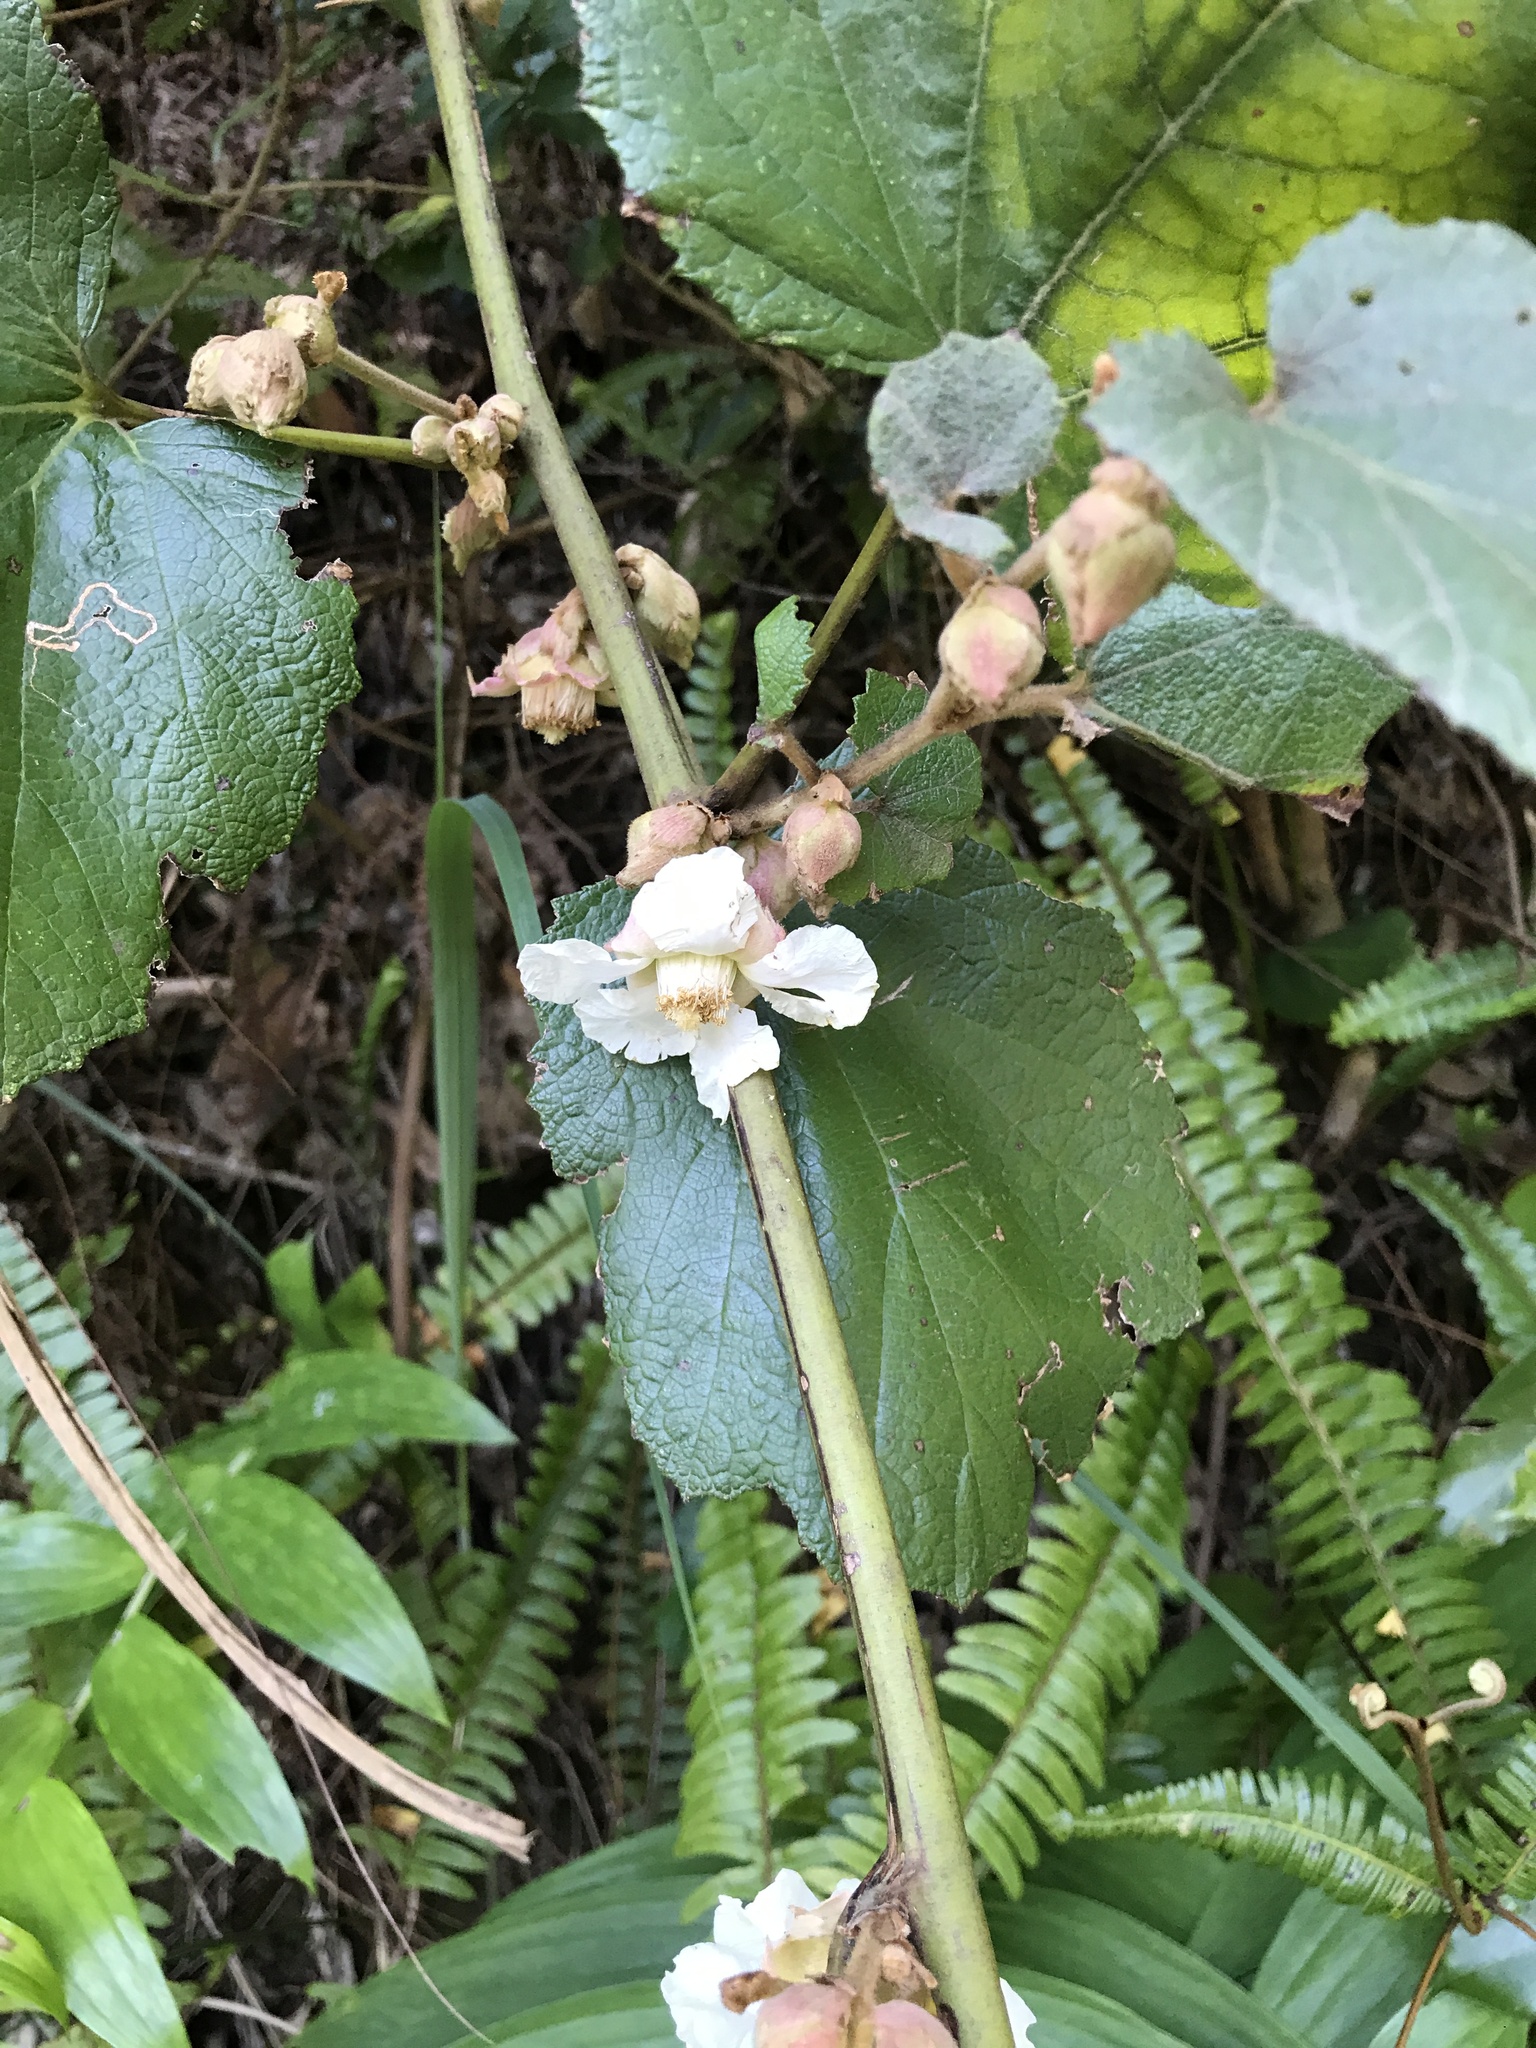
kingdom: Plantae
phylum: Tracheophyta
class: Magnoliopsida
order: Rosales
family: Rosaceae
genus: Rubus
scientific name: Rubus sieboldii
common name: Molucca raspberry
